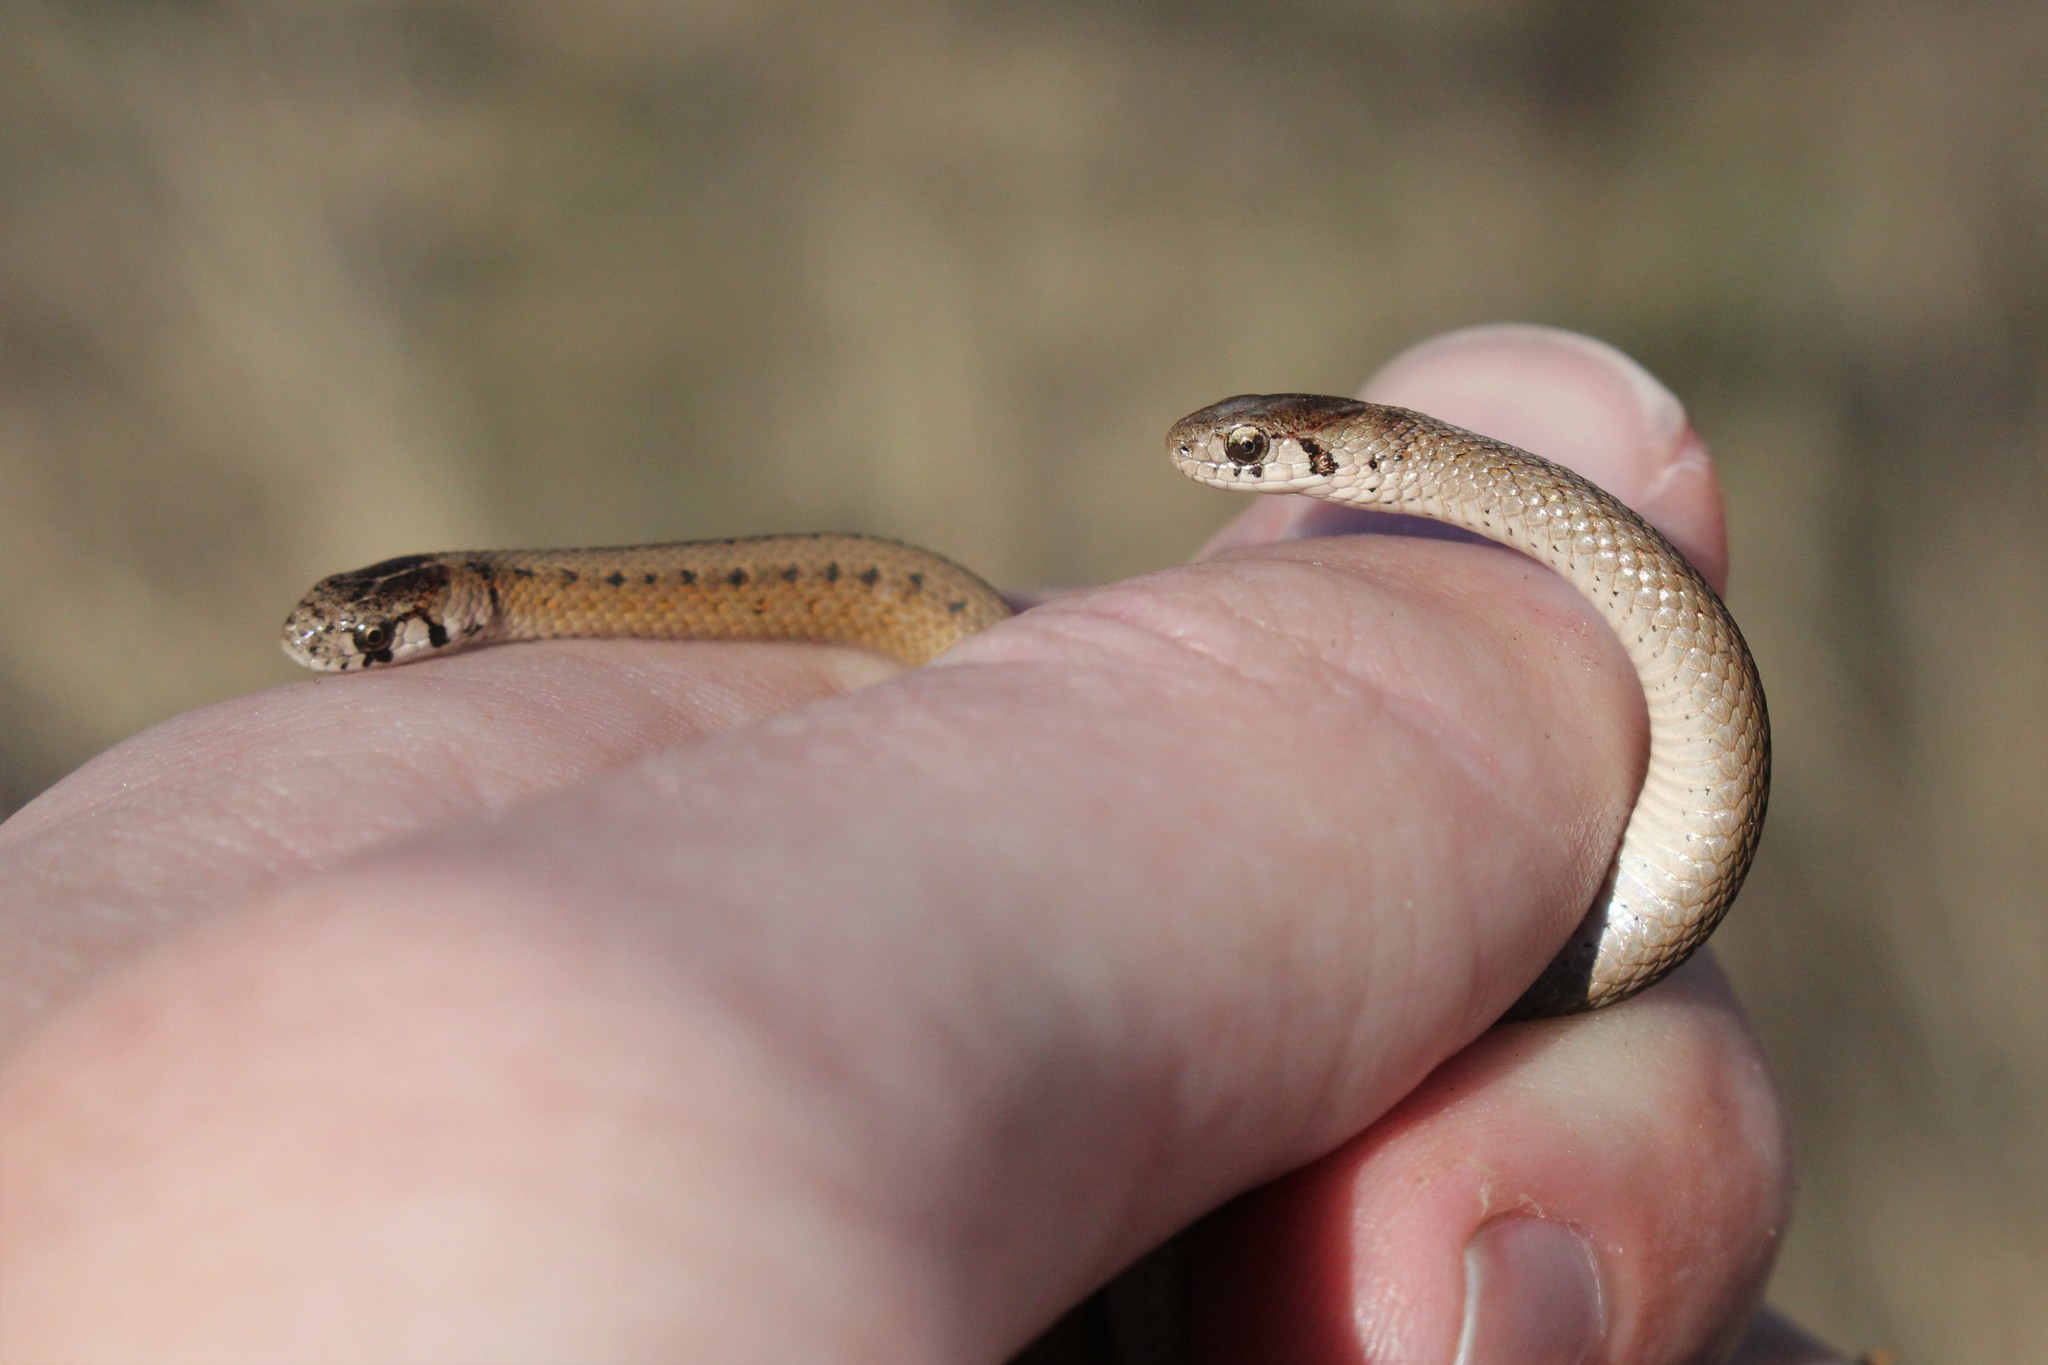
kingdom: Animalia
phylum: Chordata
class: Squamata
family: Colubridae
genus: Storeria
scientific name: Storeria dekayi
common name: (dekay’s) brown snake
